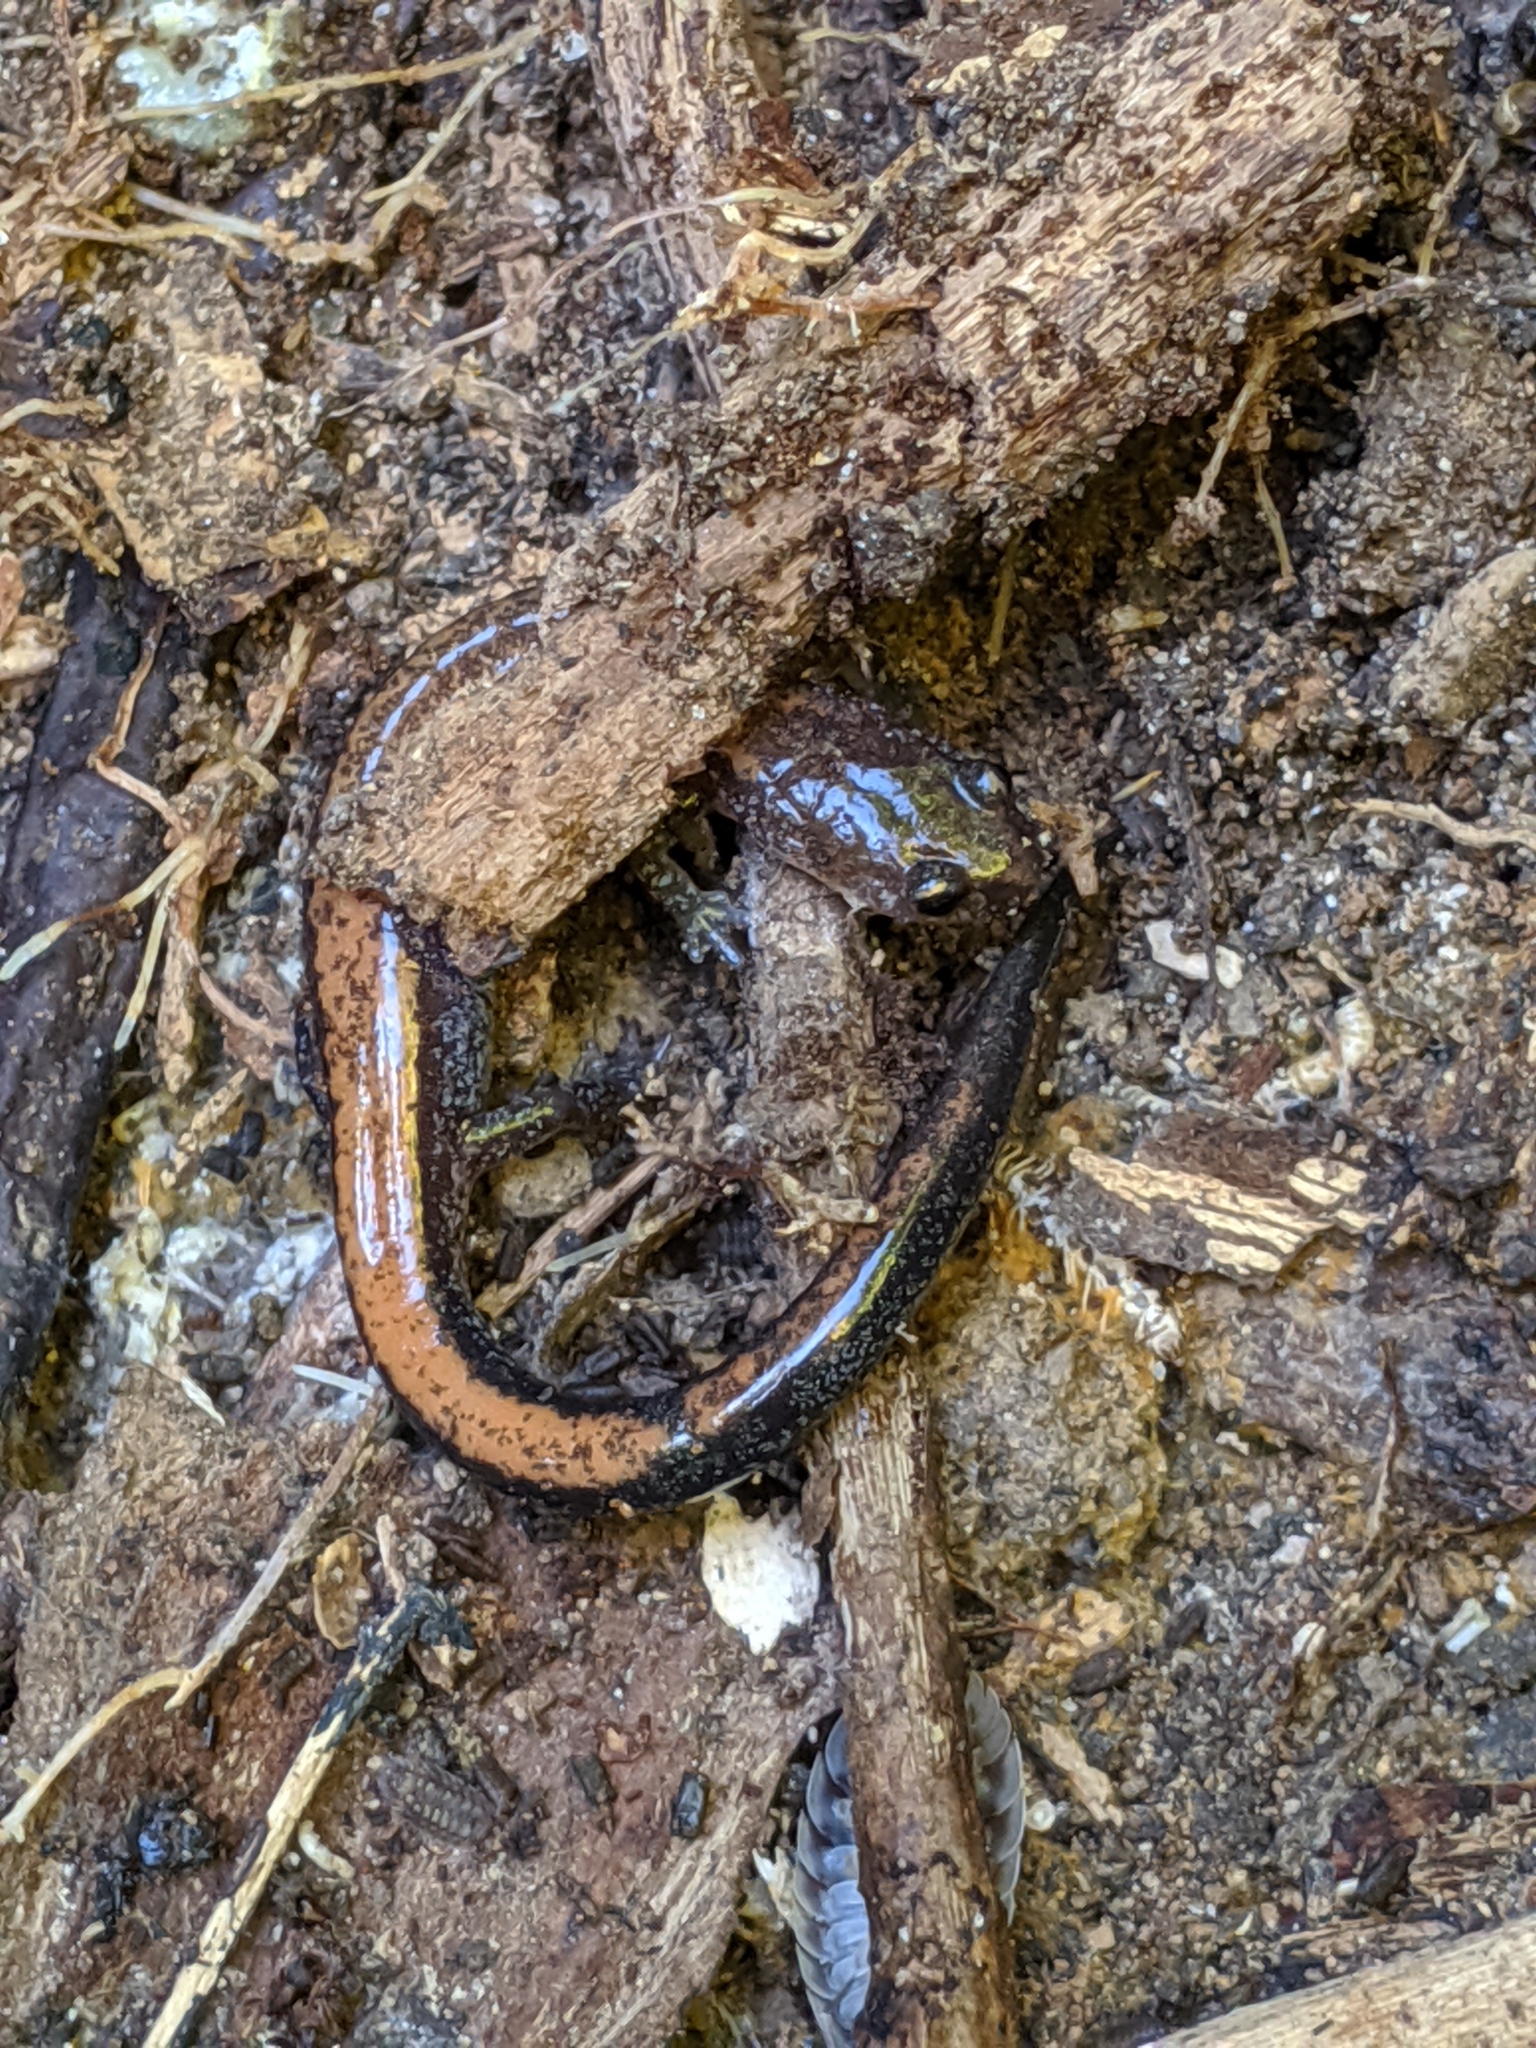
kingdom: Animalia
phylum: Chordata
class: Amphibia
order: Caudata
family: Plethodontidae
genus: Plethodon
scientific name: Plethodon cinereus
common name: Redback salamander
